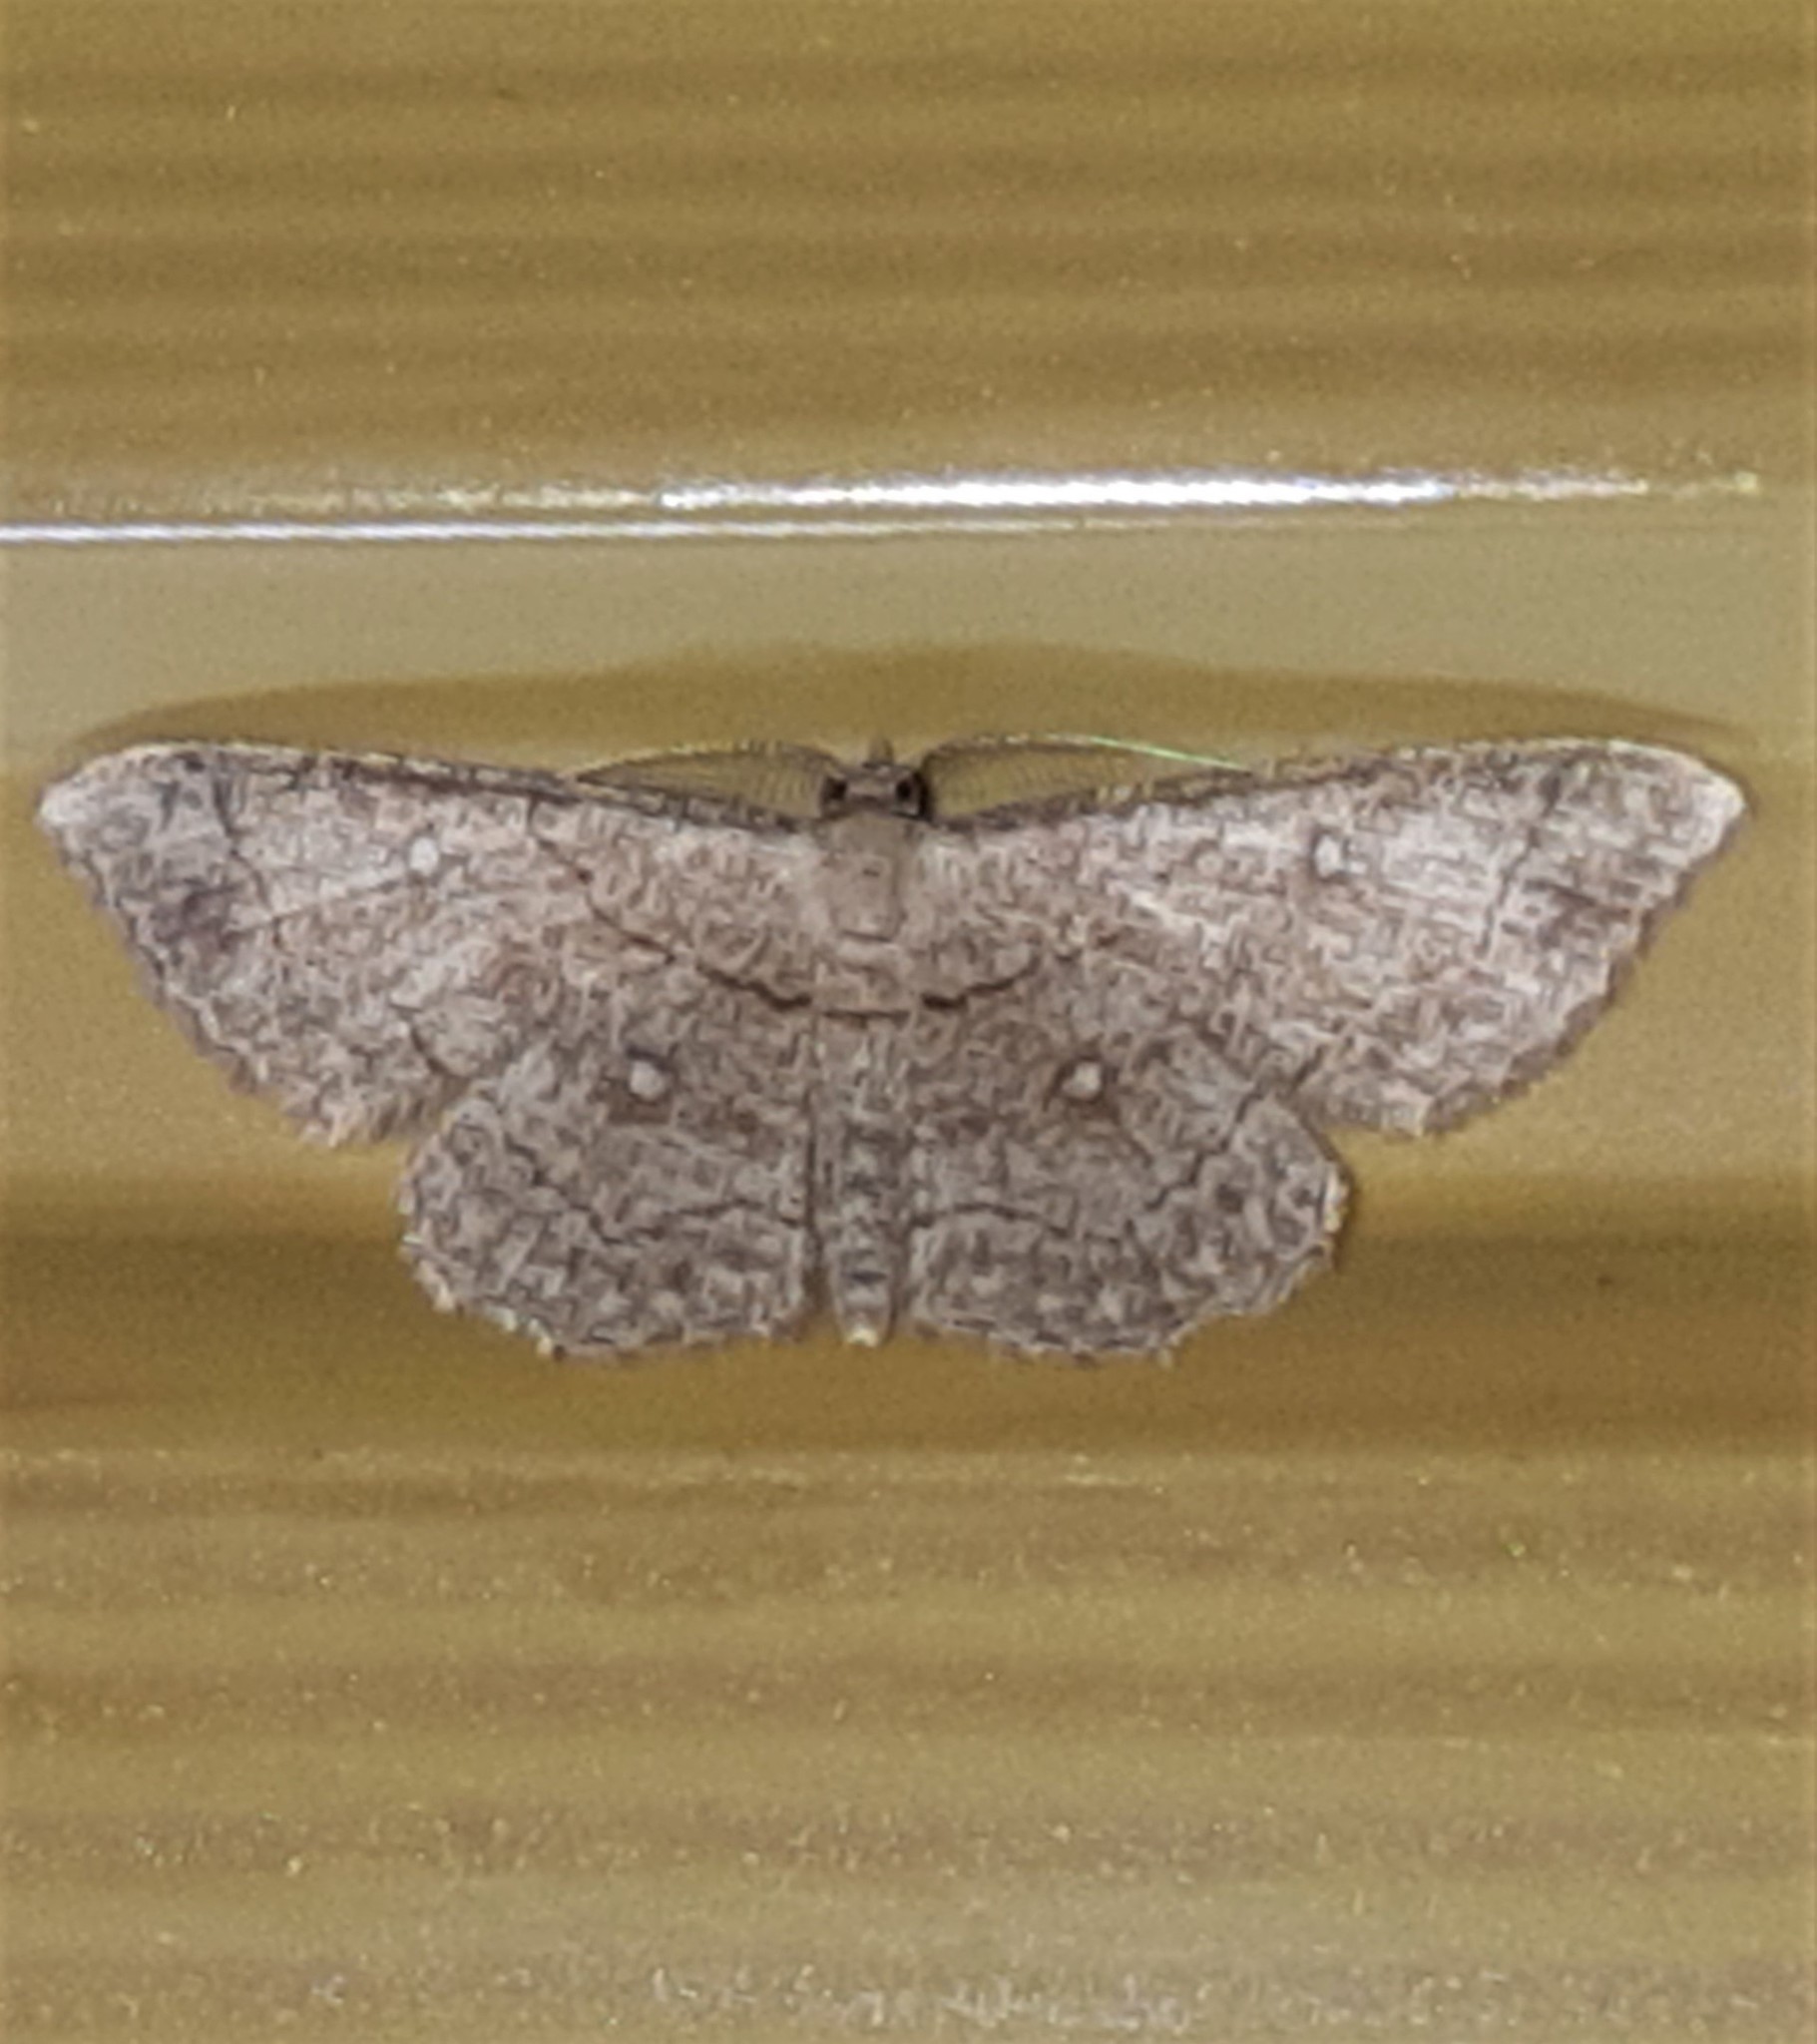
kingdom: Animalia
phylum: Arthropoda
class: Insecta
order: Lepidoptera
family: Geometridae
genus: Cyclophora
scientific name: Cyclophora coecaria
